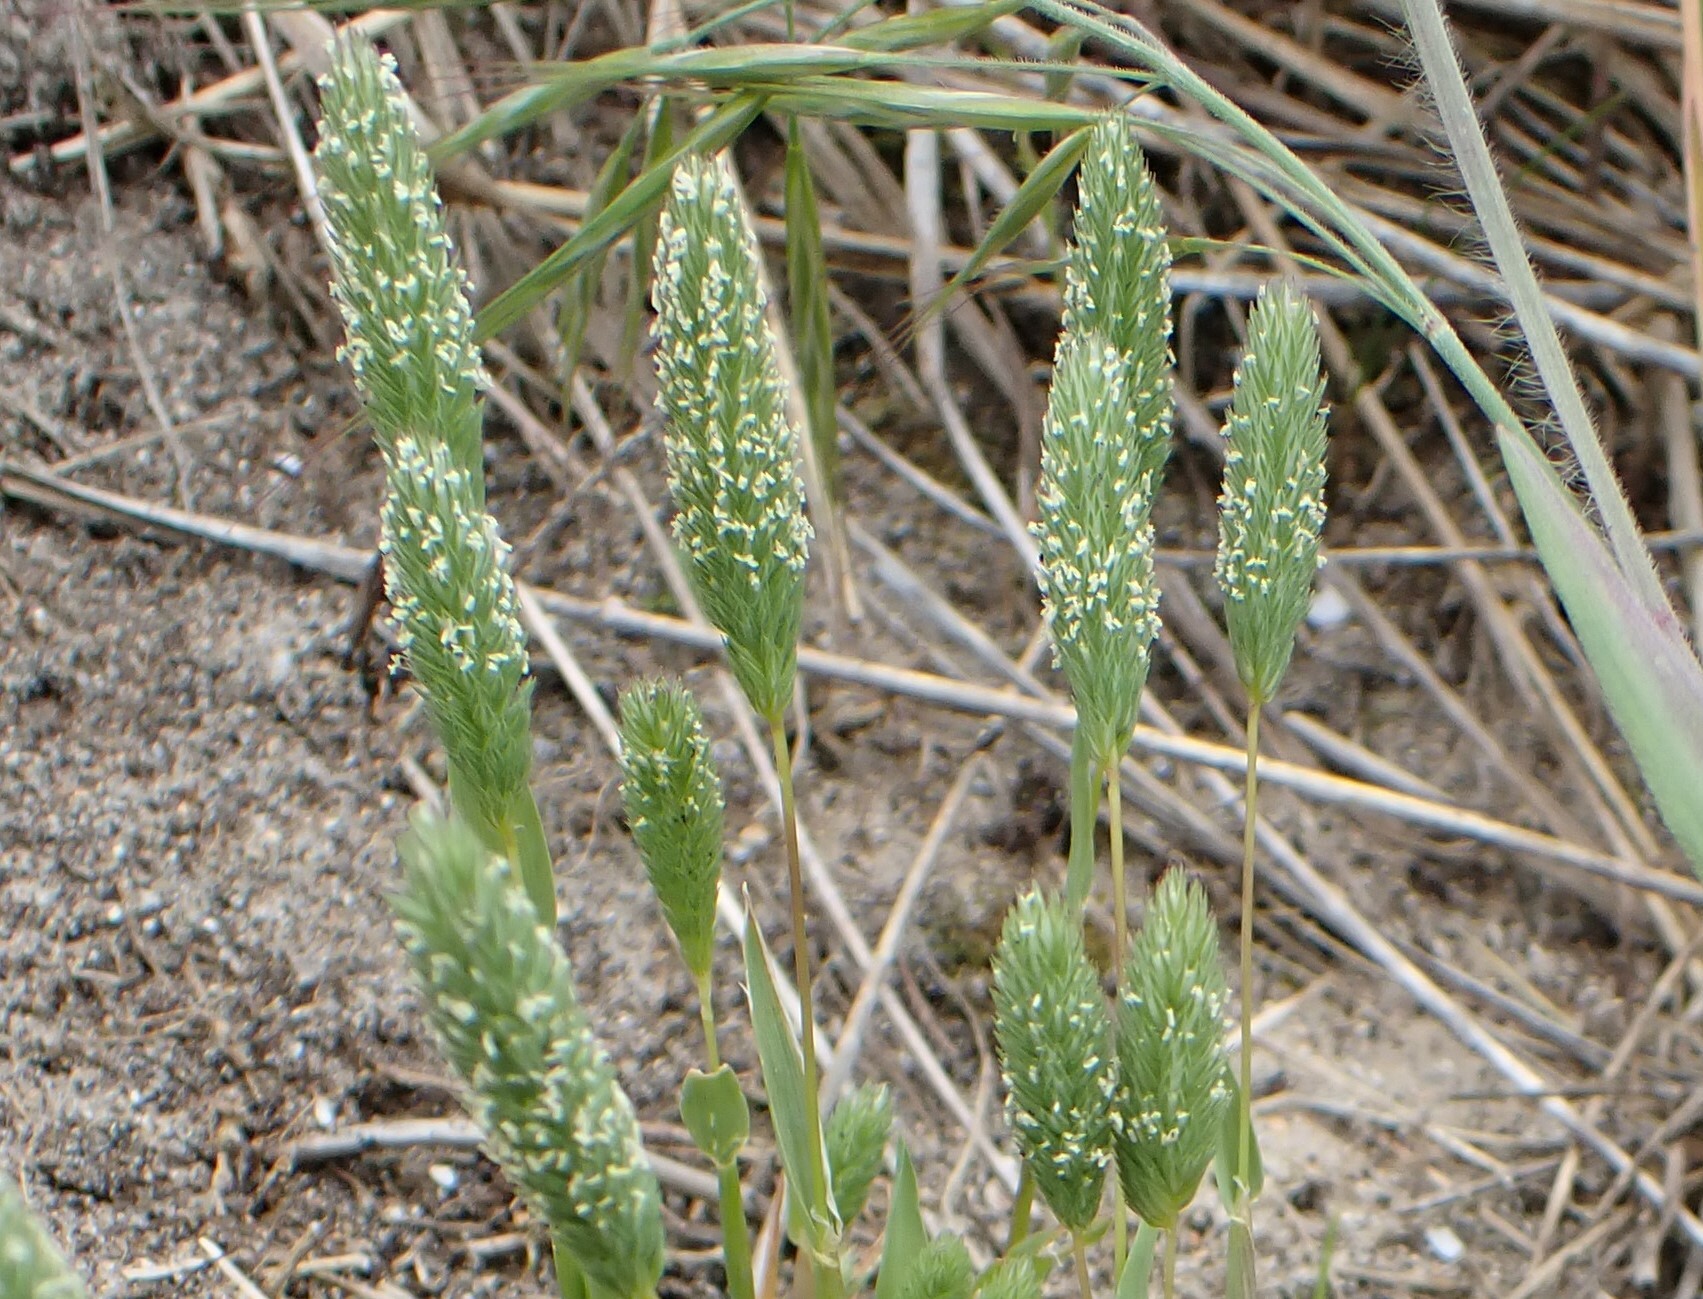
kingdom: Plantae
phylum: Tracheophyta
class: Liliopsida
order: Poales
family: Poaceae
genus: Phleum
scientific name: Phleum arenarium
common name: Sand cat's-tail
